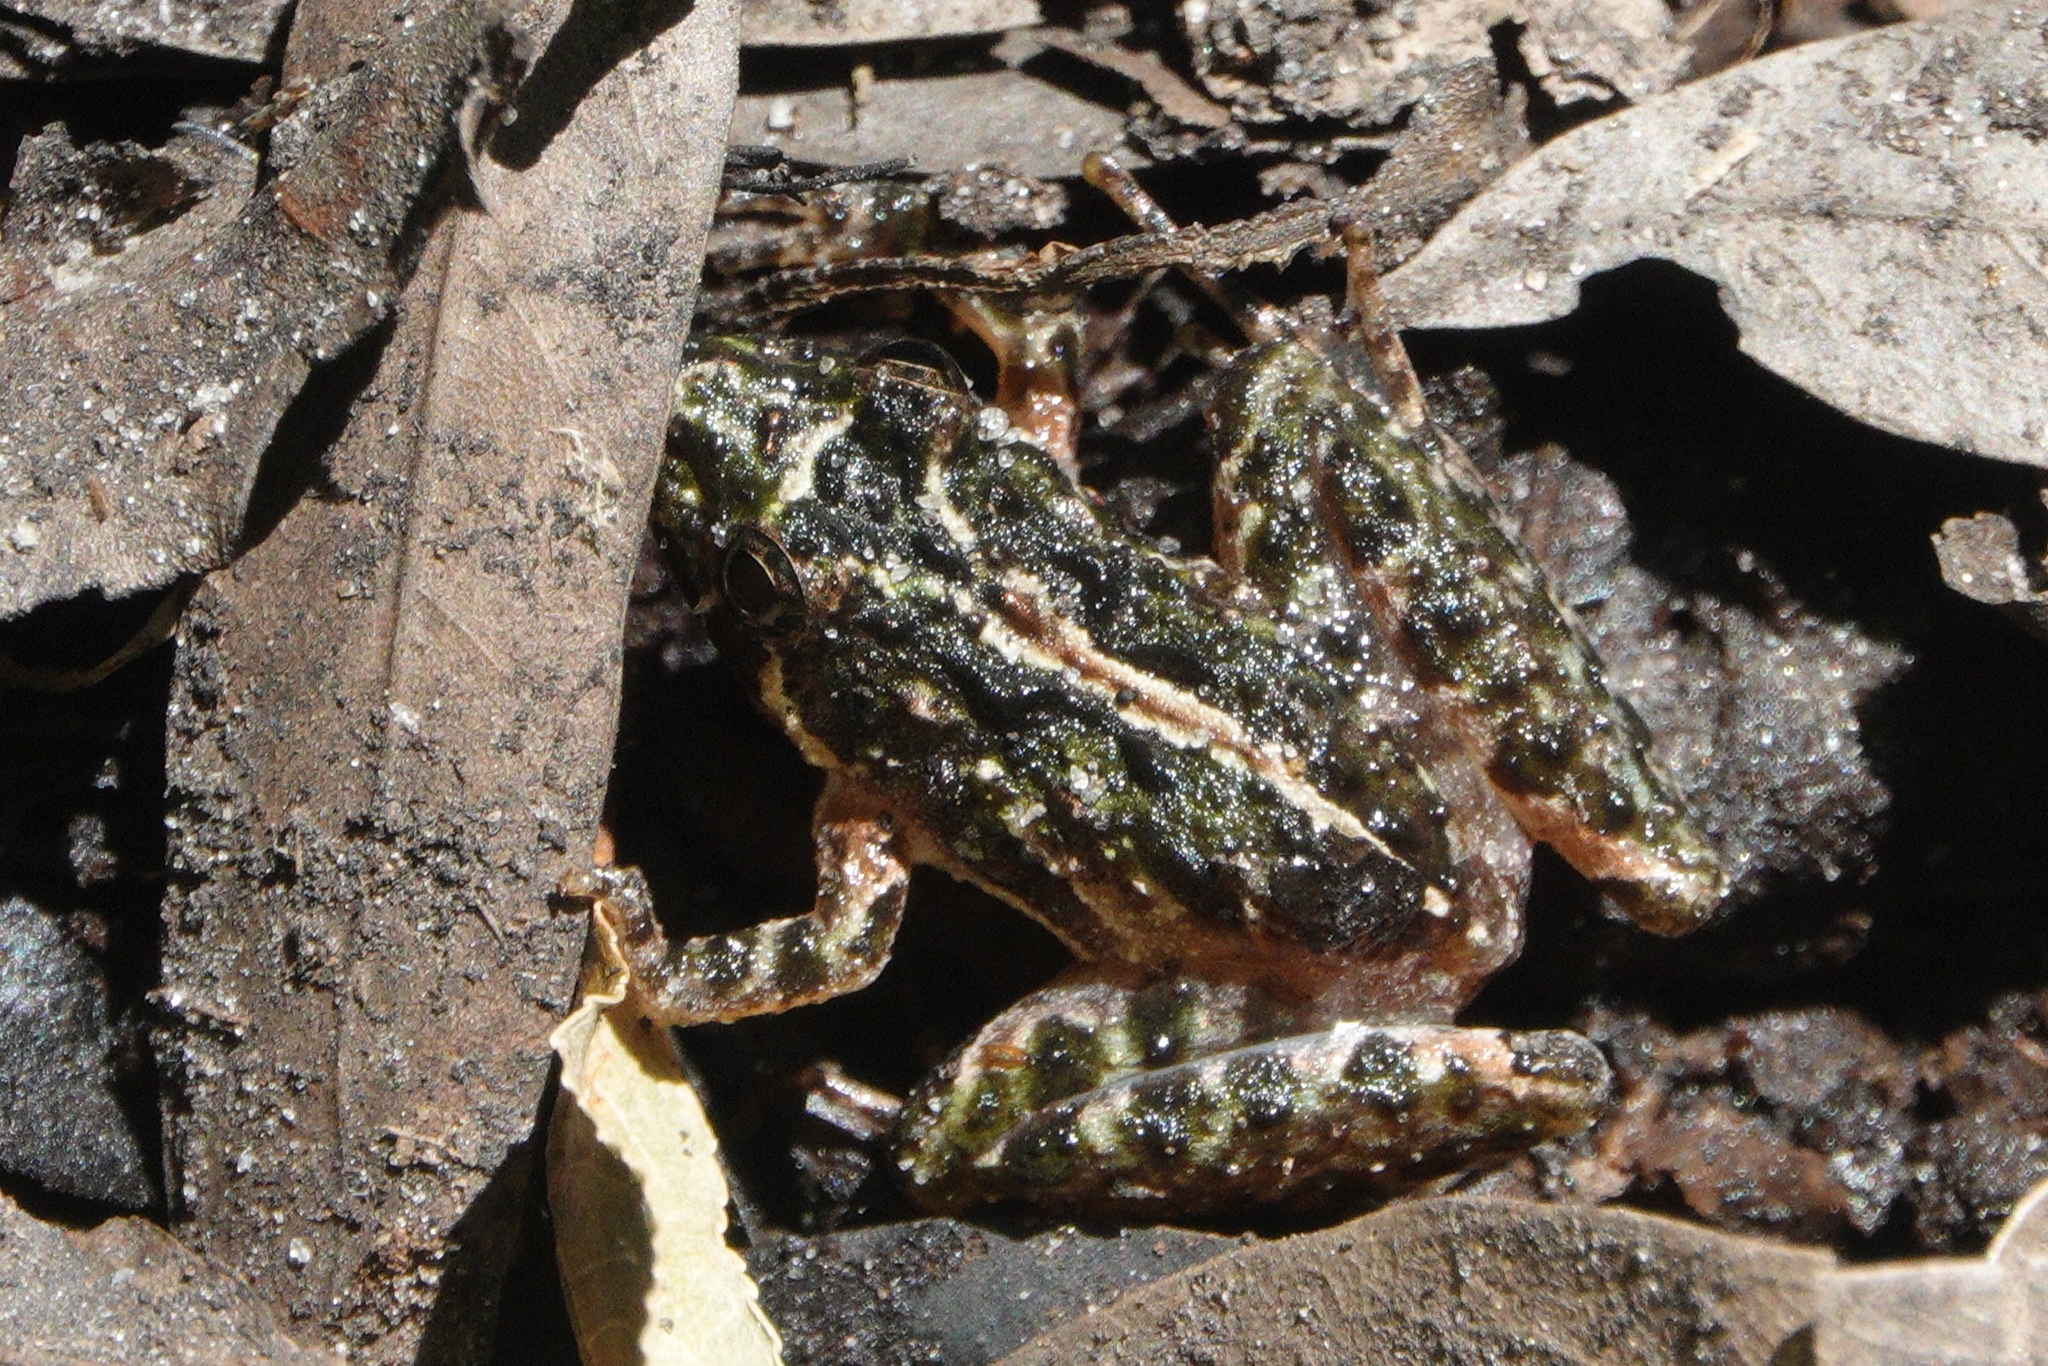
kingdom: Animalia
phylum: Chordata
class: Amphibia
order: Anura
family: Hylidae
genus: Acris
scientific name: Acris gryllus
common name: Southern cricket frog
